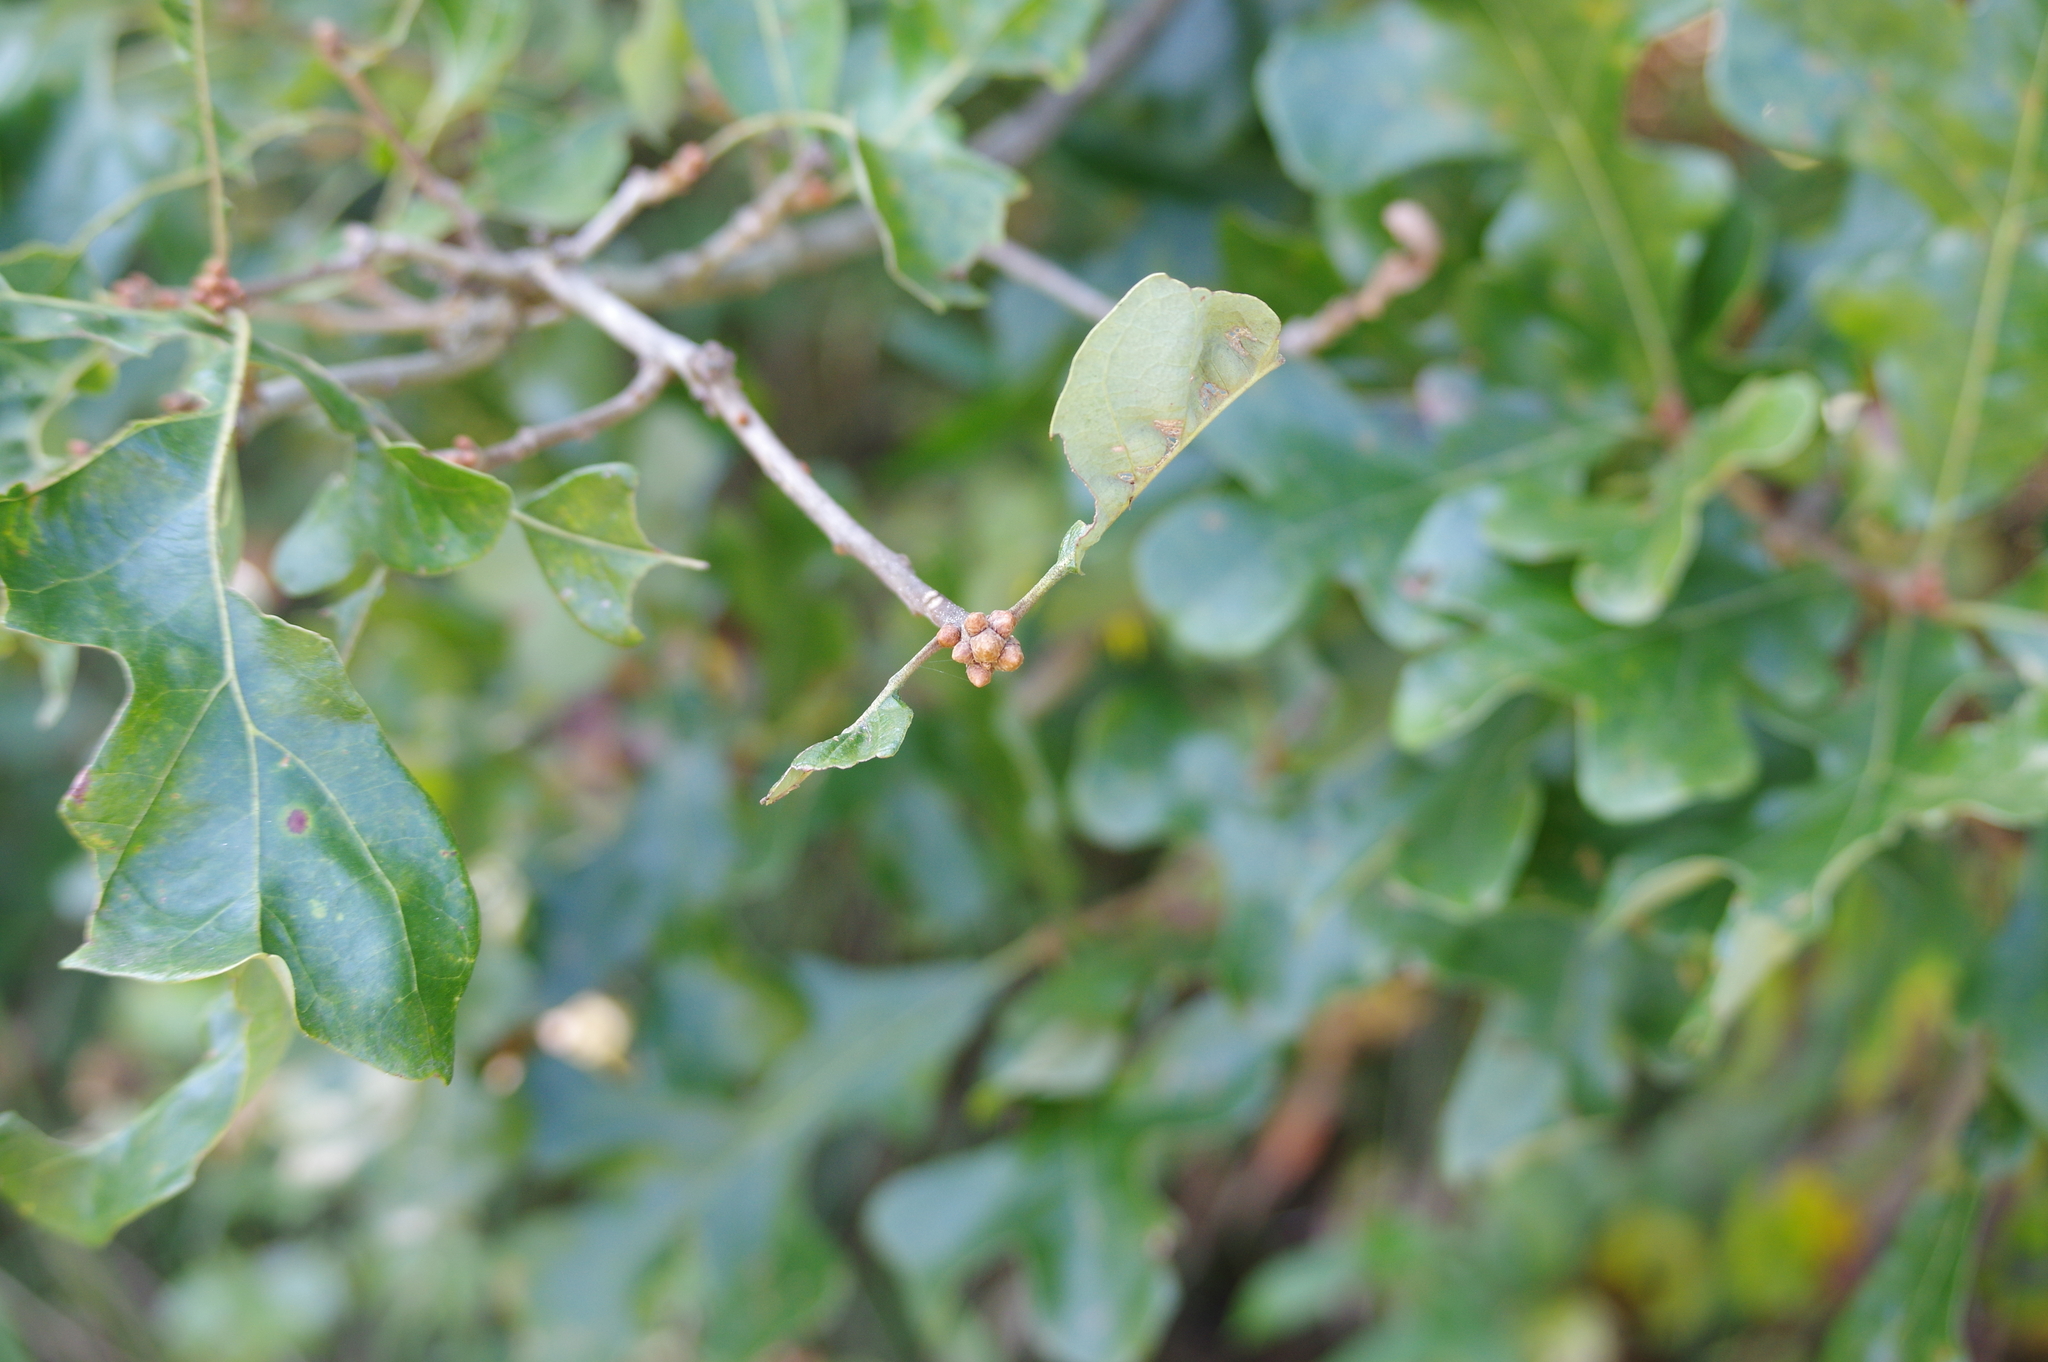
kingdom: Plantae
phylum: Tracheophyta
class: Magnoliopsida
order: Fagales
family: Fagaceae
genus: Quercus
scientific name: Quercus stellata
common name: Post oak
